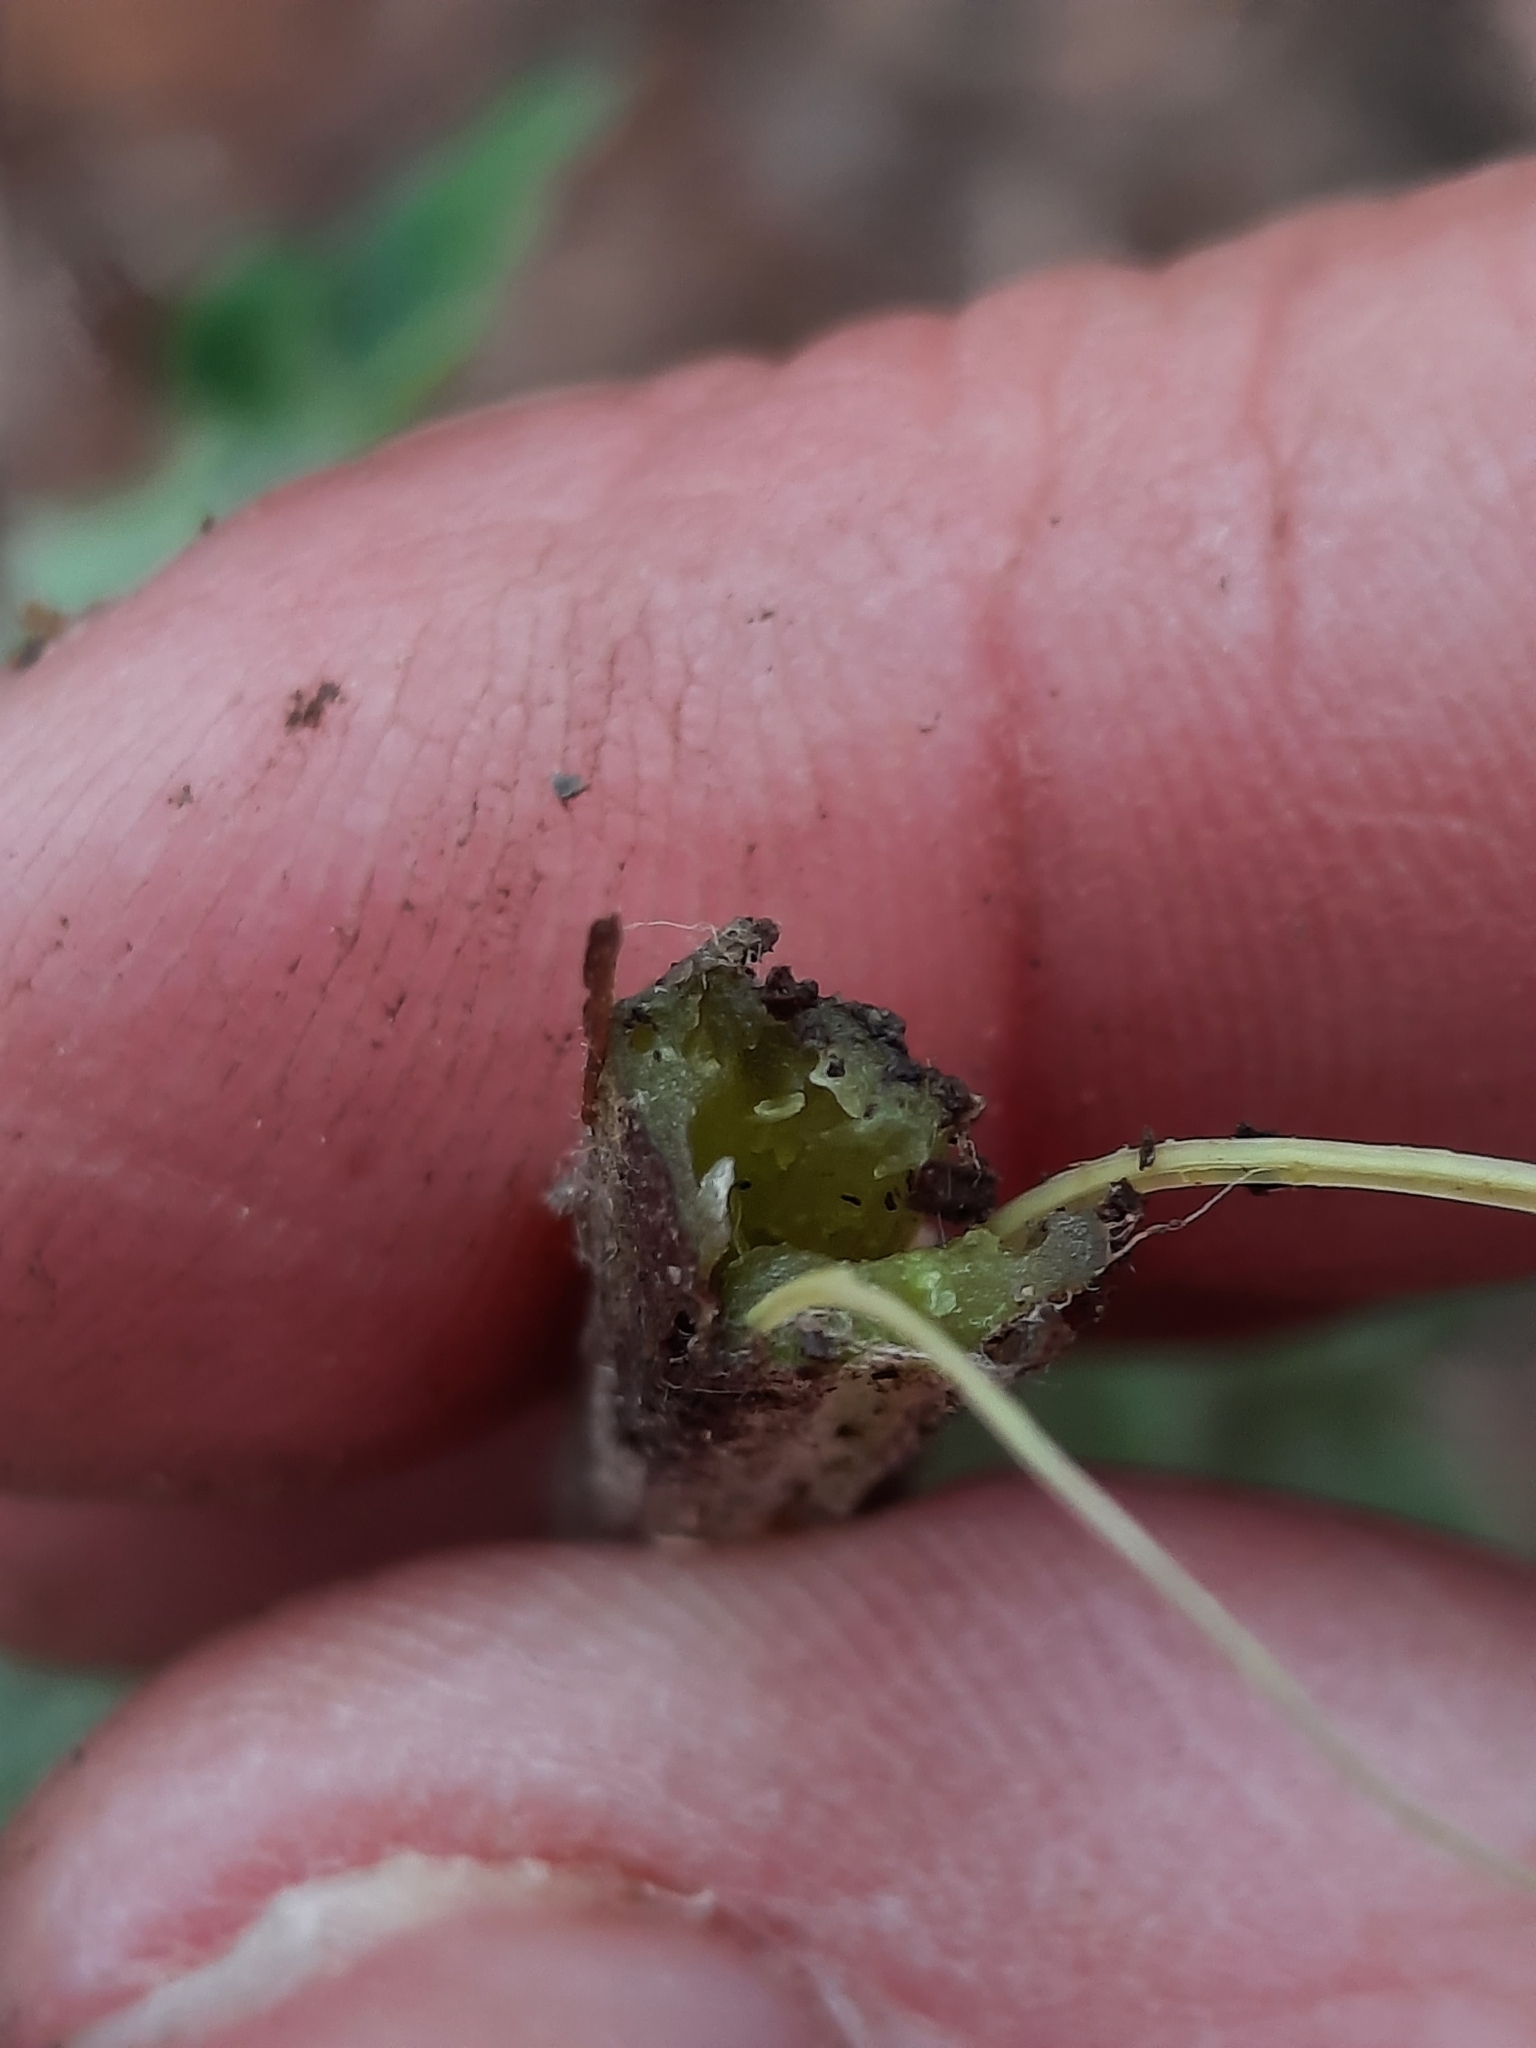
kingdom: Plantae
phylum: Tracheophyta
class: Magnoliopsida
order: Asterales
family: Asteraceae
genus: Arctium
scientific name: Arctium minus
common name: Lesser burdock
